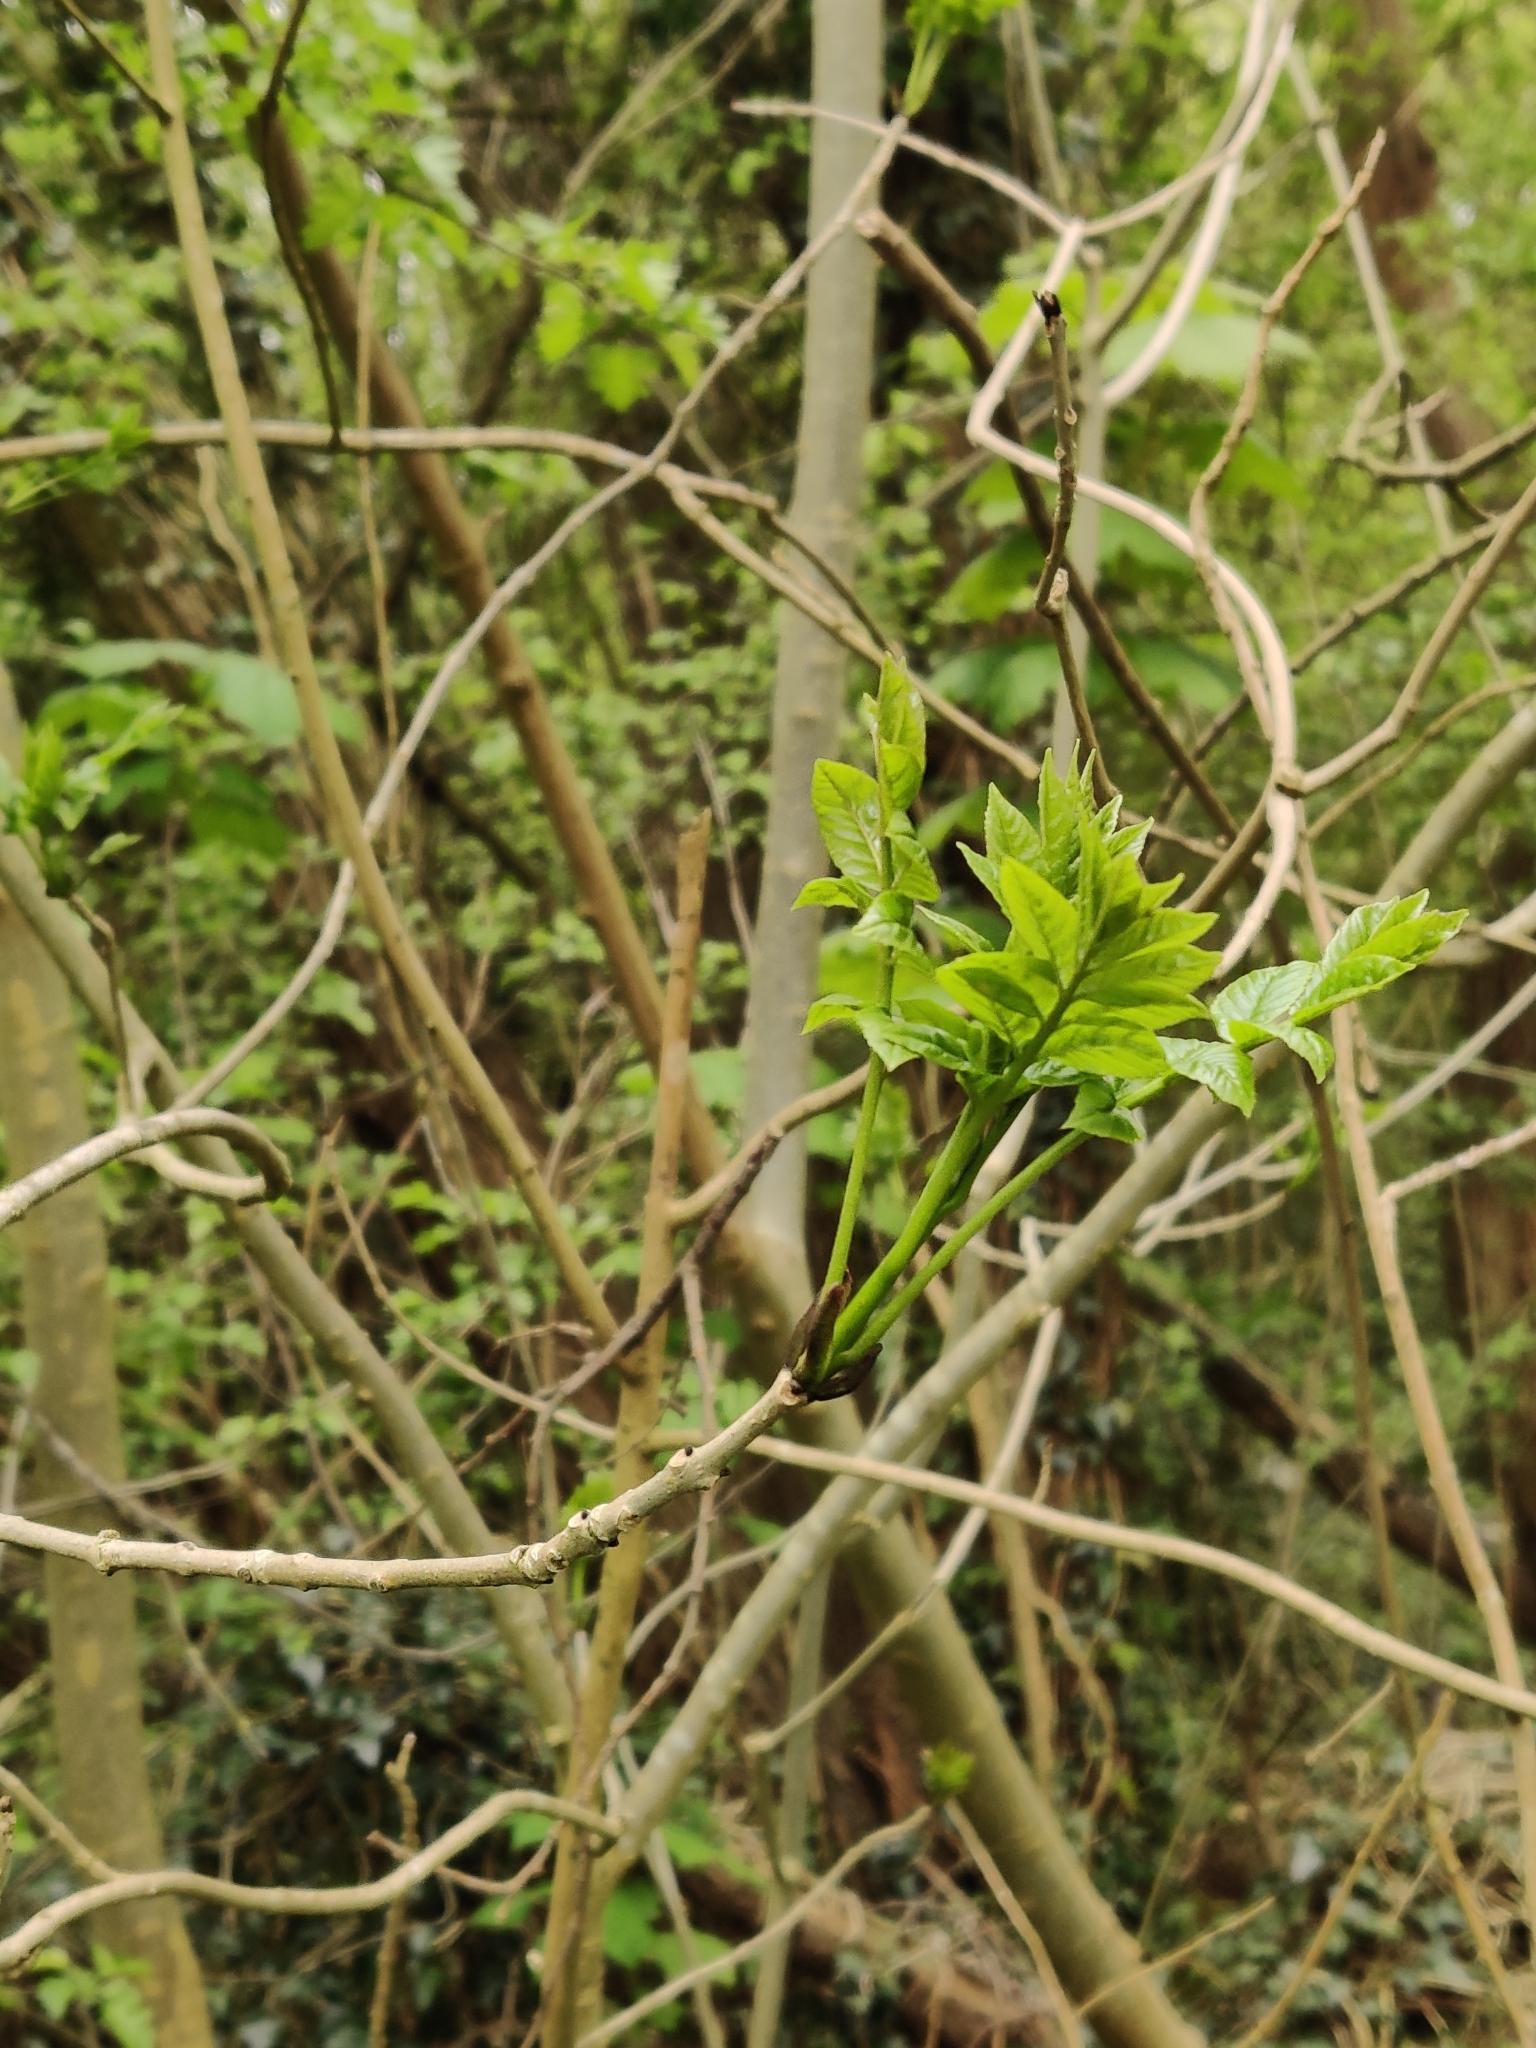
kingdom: Plantae
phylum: Tracheophyta
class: Magnoliopsida
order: Lamiales
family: Oleaceae
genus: Fraxinus
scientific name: Fraxinus excelsior
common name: European ash
